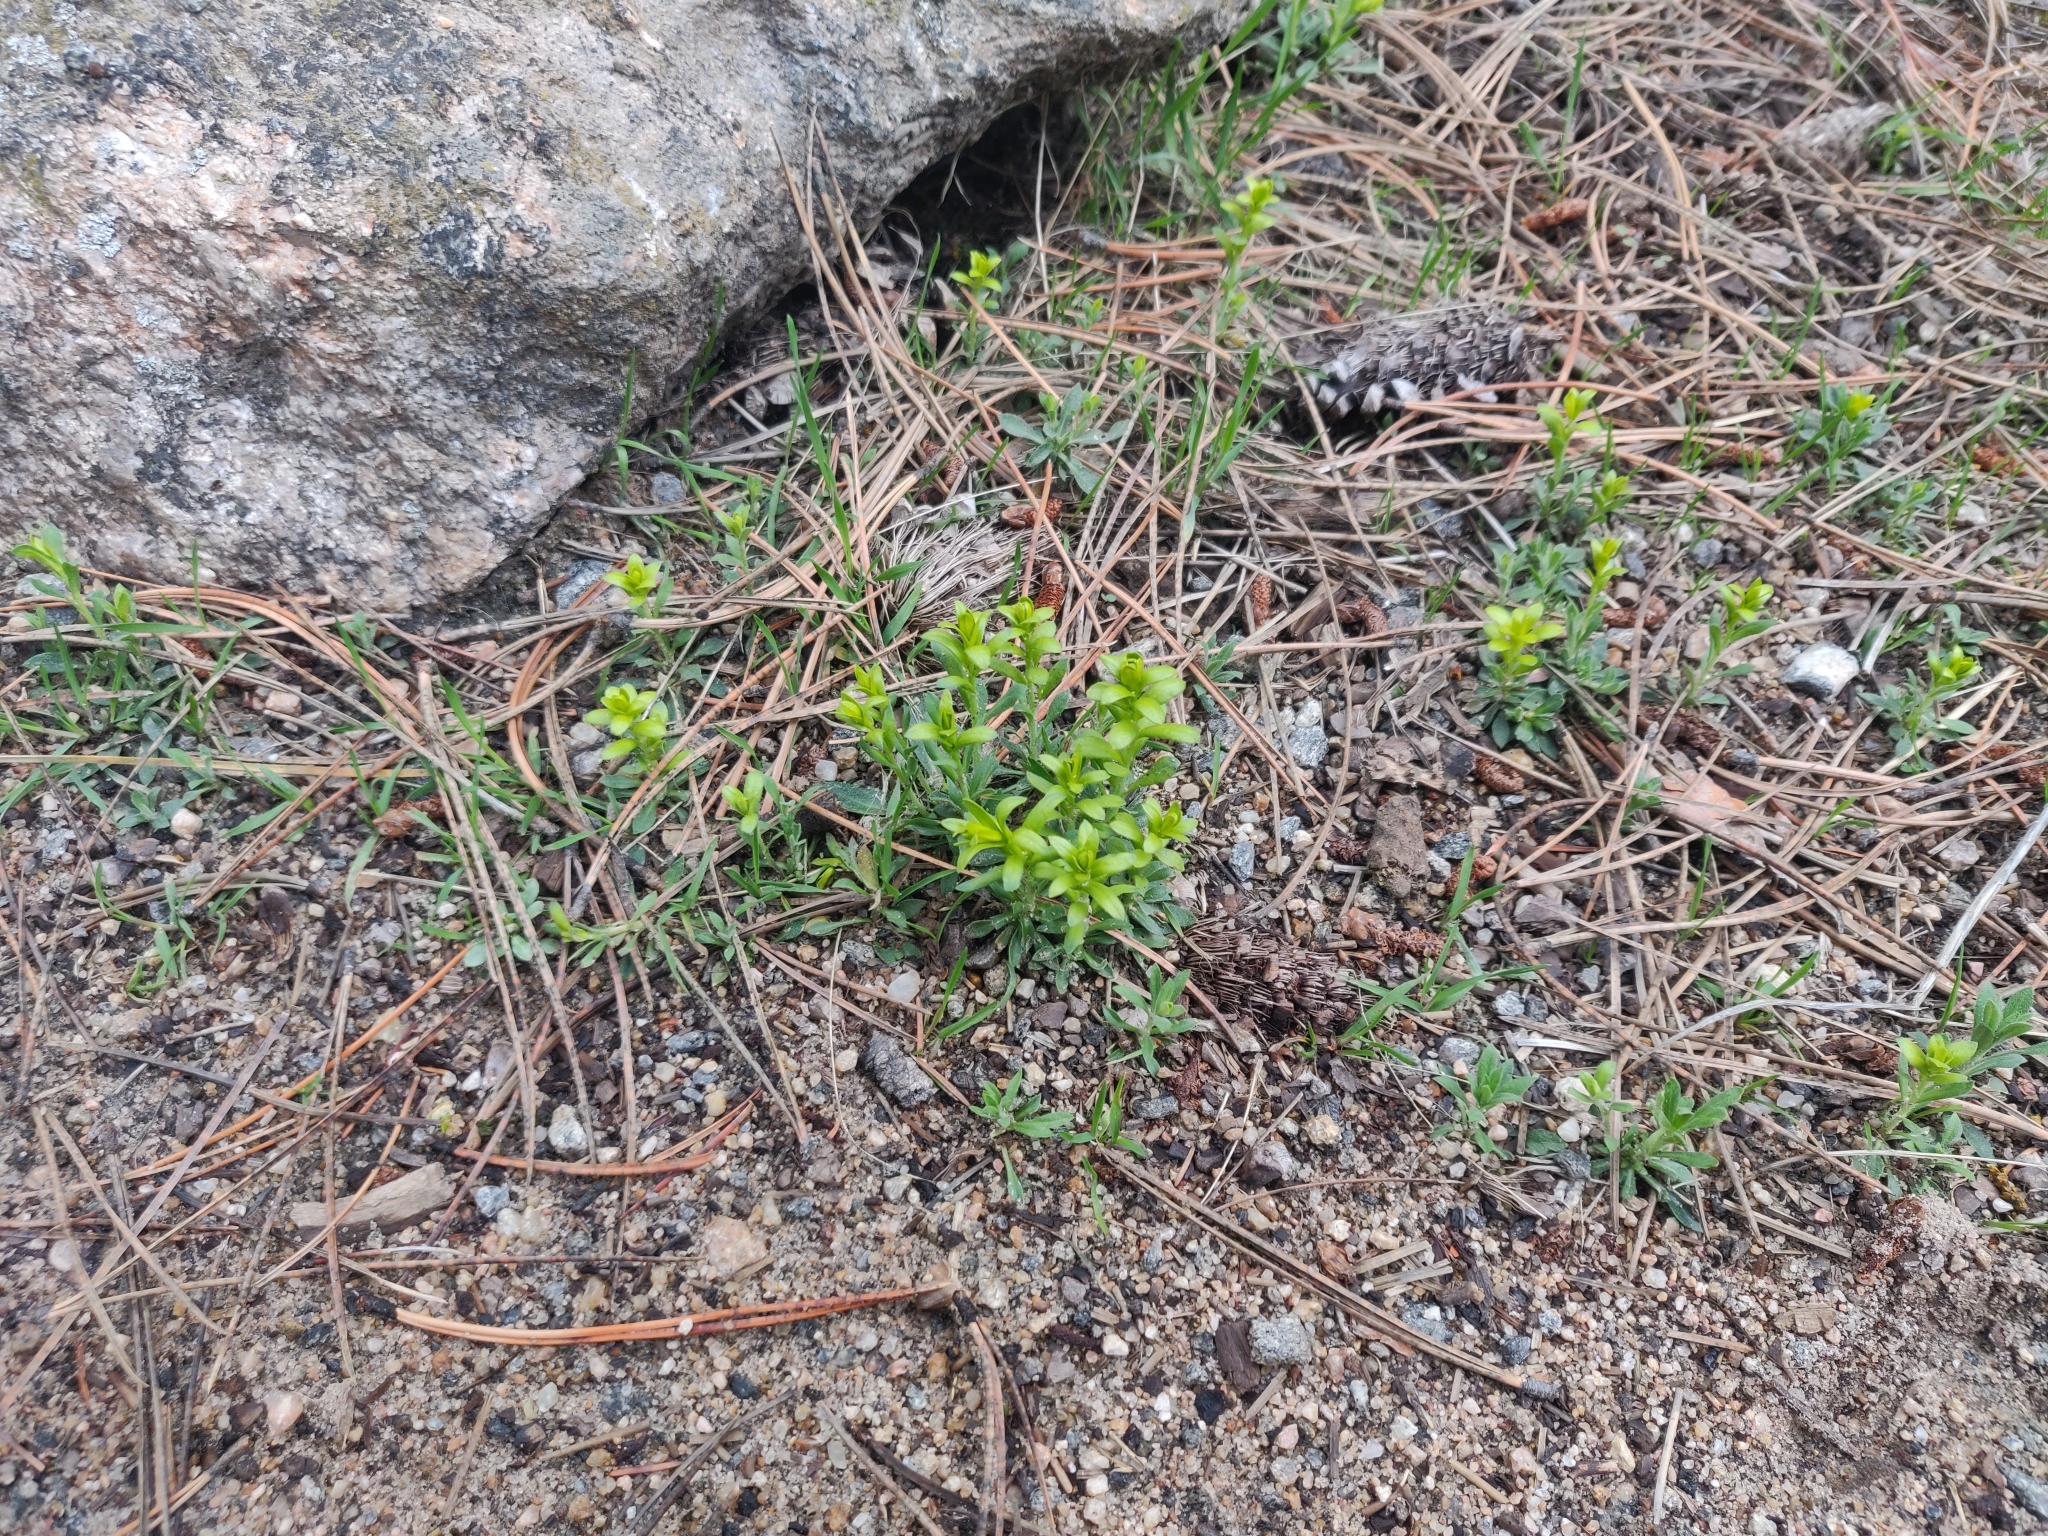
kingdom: Fungi
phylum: Basidiomycota
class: Pucciniomycetes
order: Pucciniales
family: Pucciniaceae
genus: Puccinia
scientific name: Puccinia monoica
